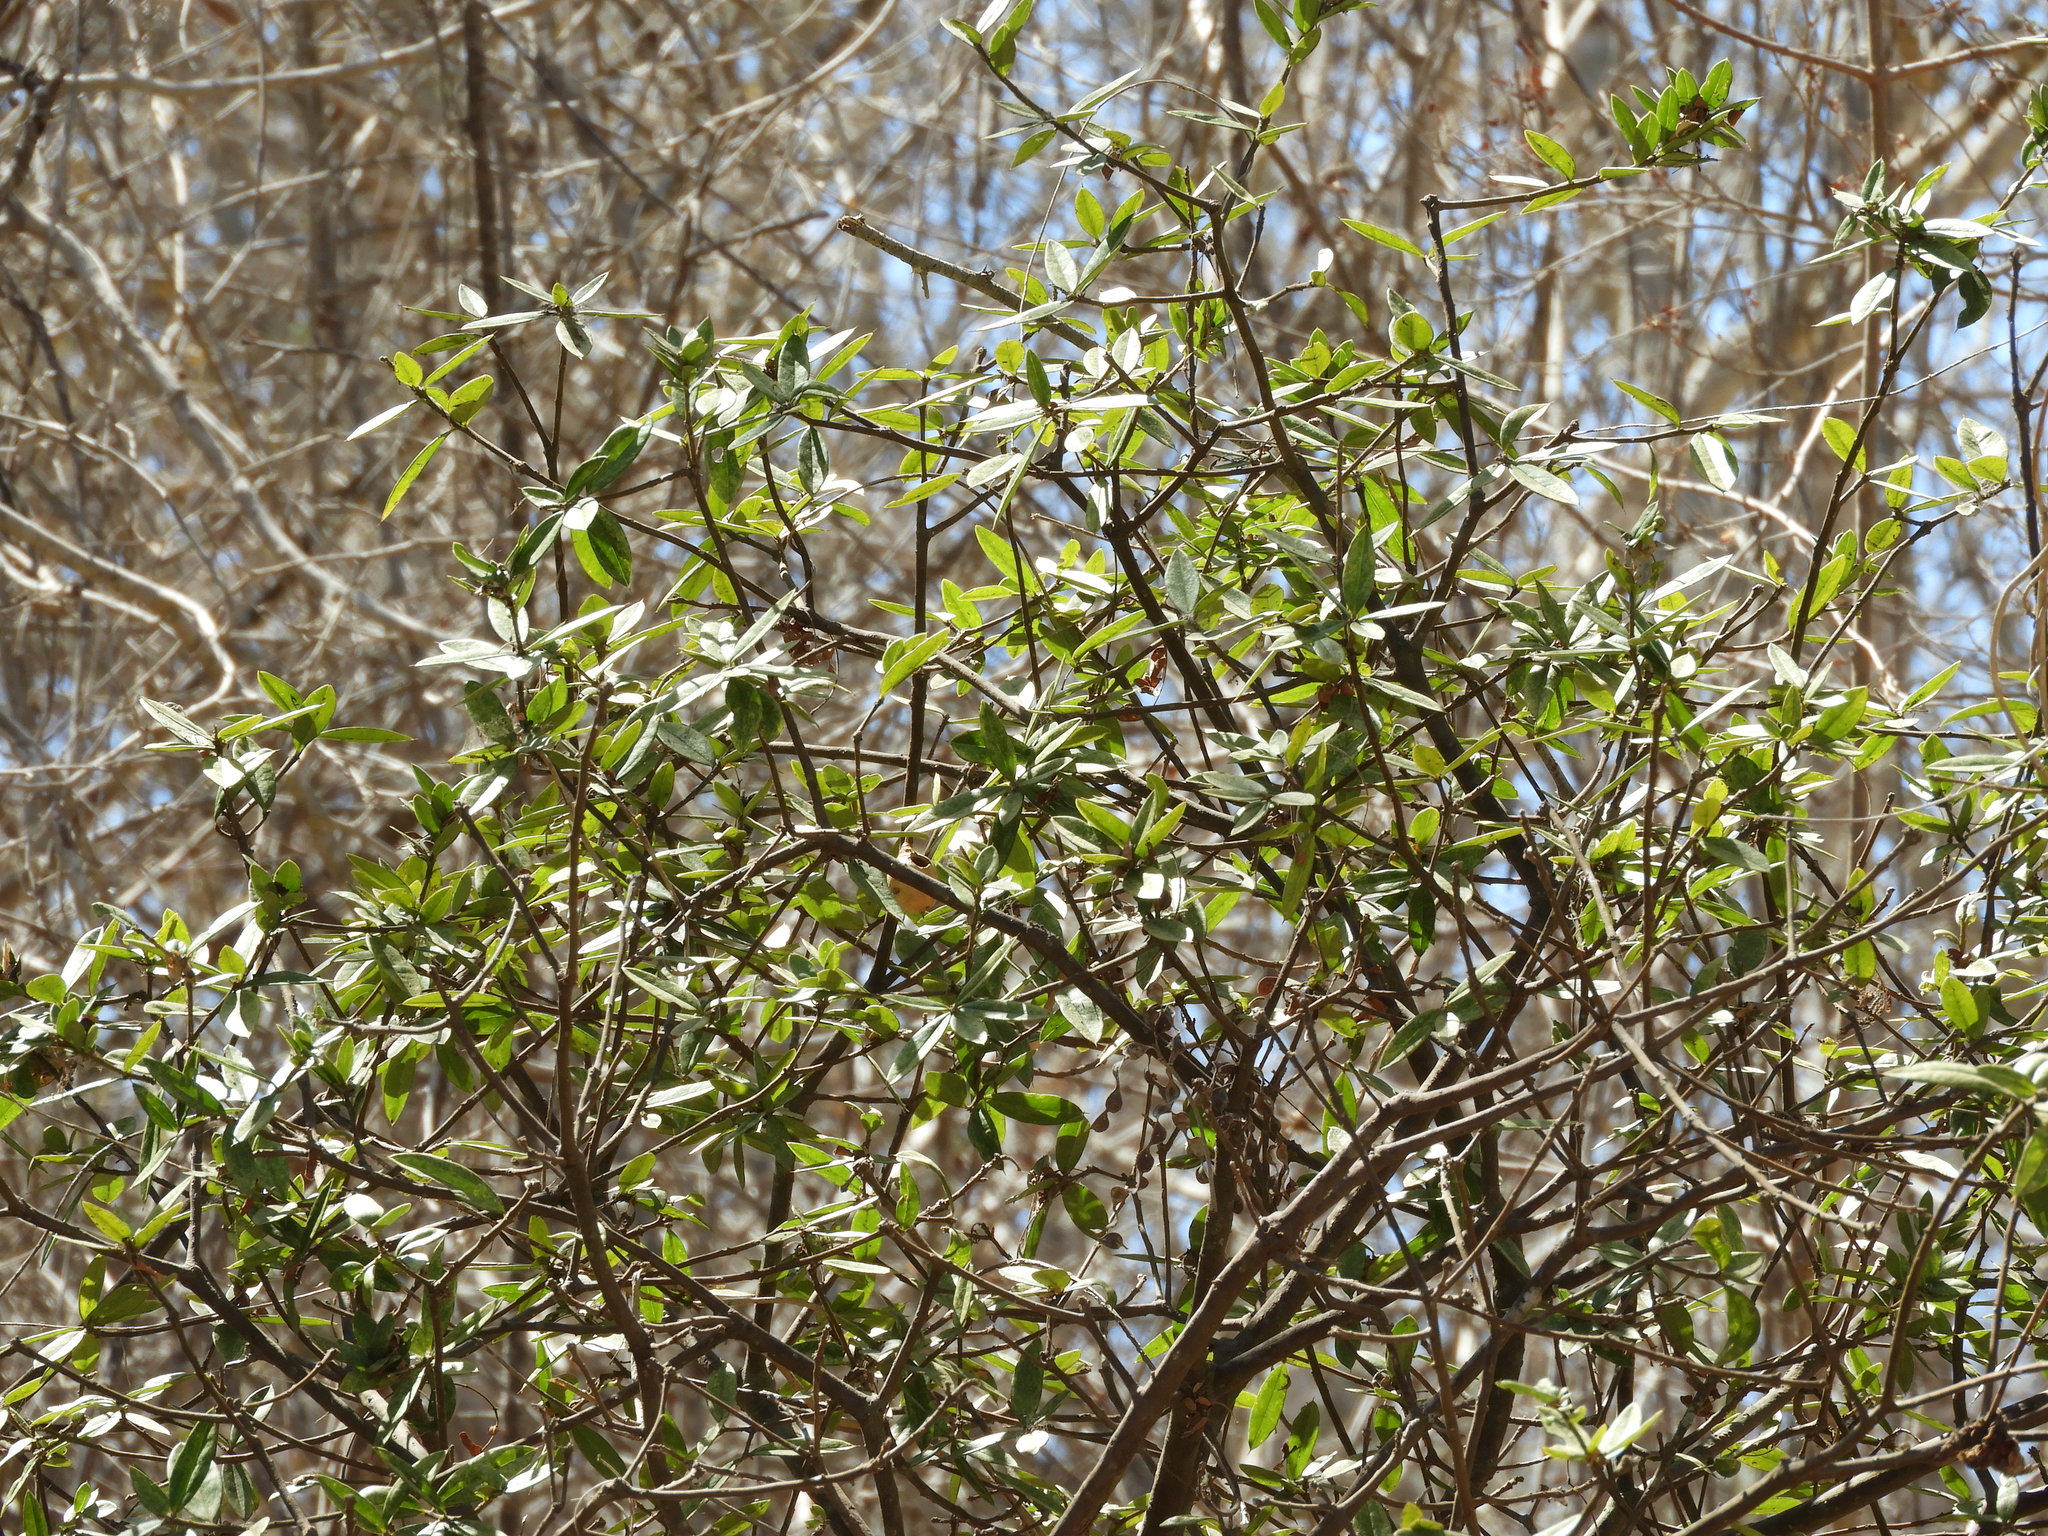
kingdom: Plantae
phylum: Tracheophyta
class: Magnoliopsida
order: Ericales
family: Primulaceae
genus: Bonellia
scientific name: Bonellia macrocarpa
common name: Primrose
